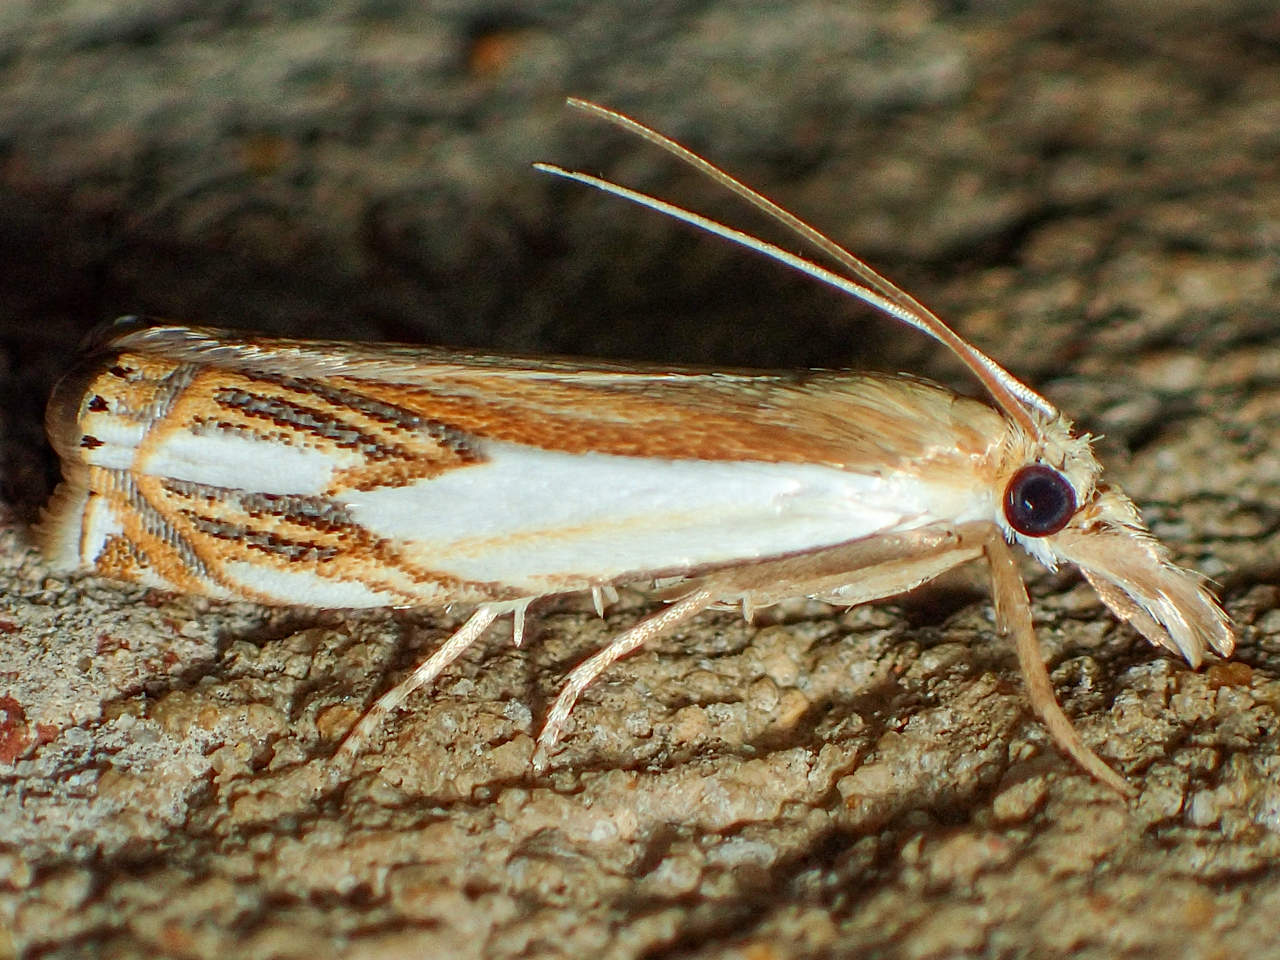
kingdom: Animalia
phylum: Arthropoda
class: Insecta
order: Lepidoptera
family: Crambidae
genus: Crambus
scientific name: Crambus agitatellus
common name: Double-banded grass-veneer
